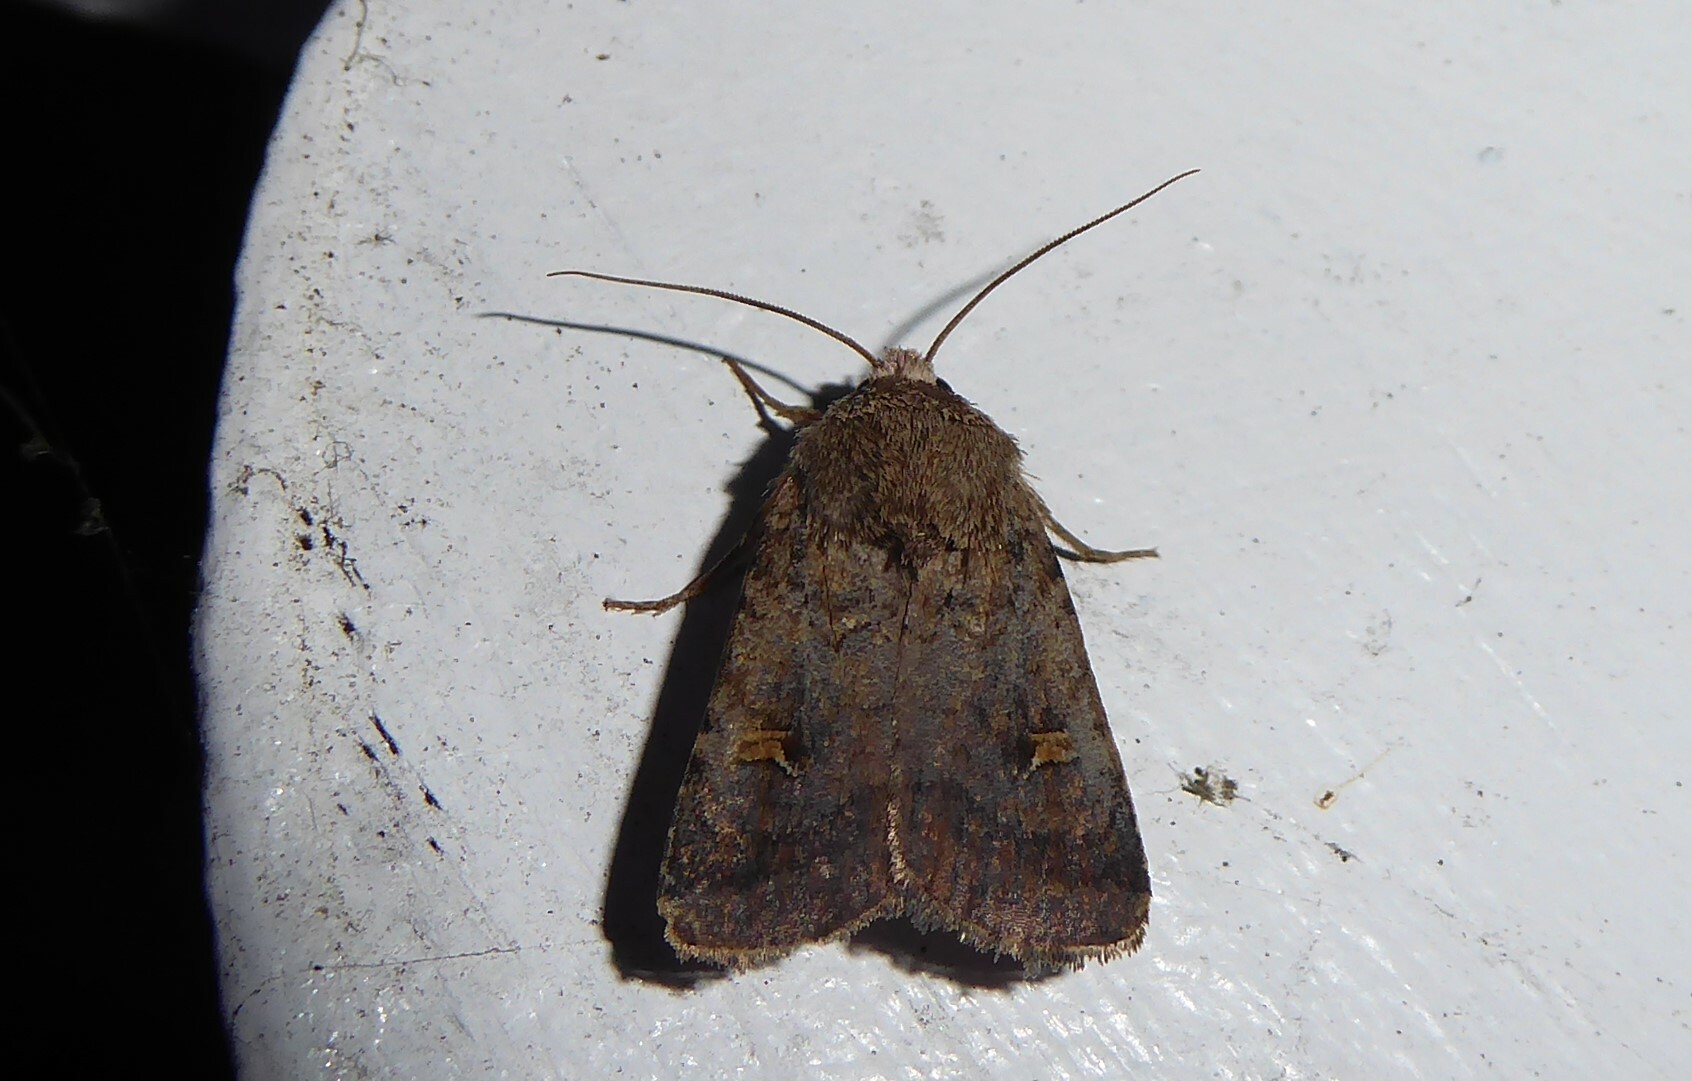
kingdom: Animalia
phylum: Arthropoda
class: Insecta
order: Lepidoptera
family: Noctuidae
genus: Proteuxoa
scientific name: Proteuxoa tetronycha
